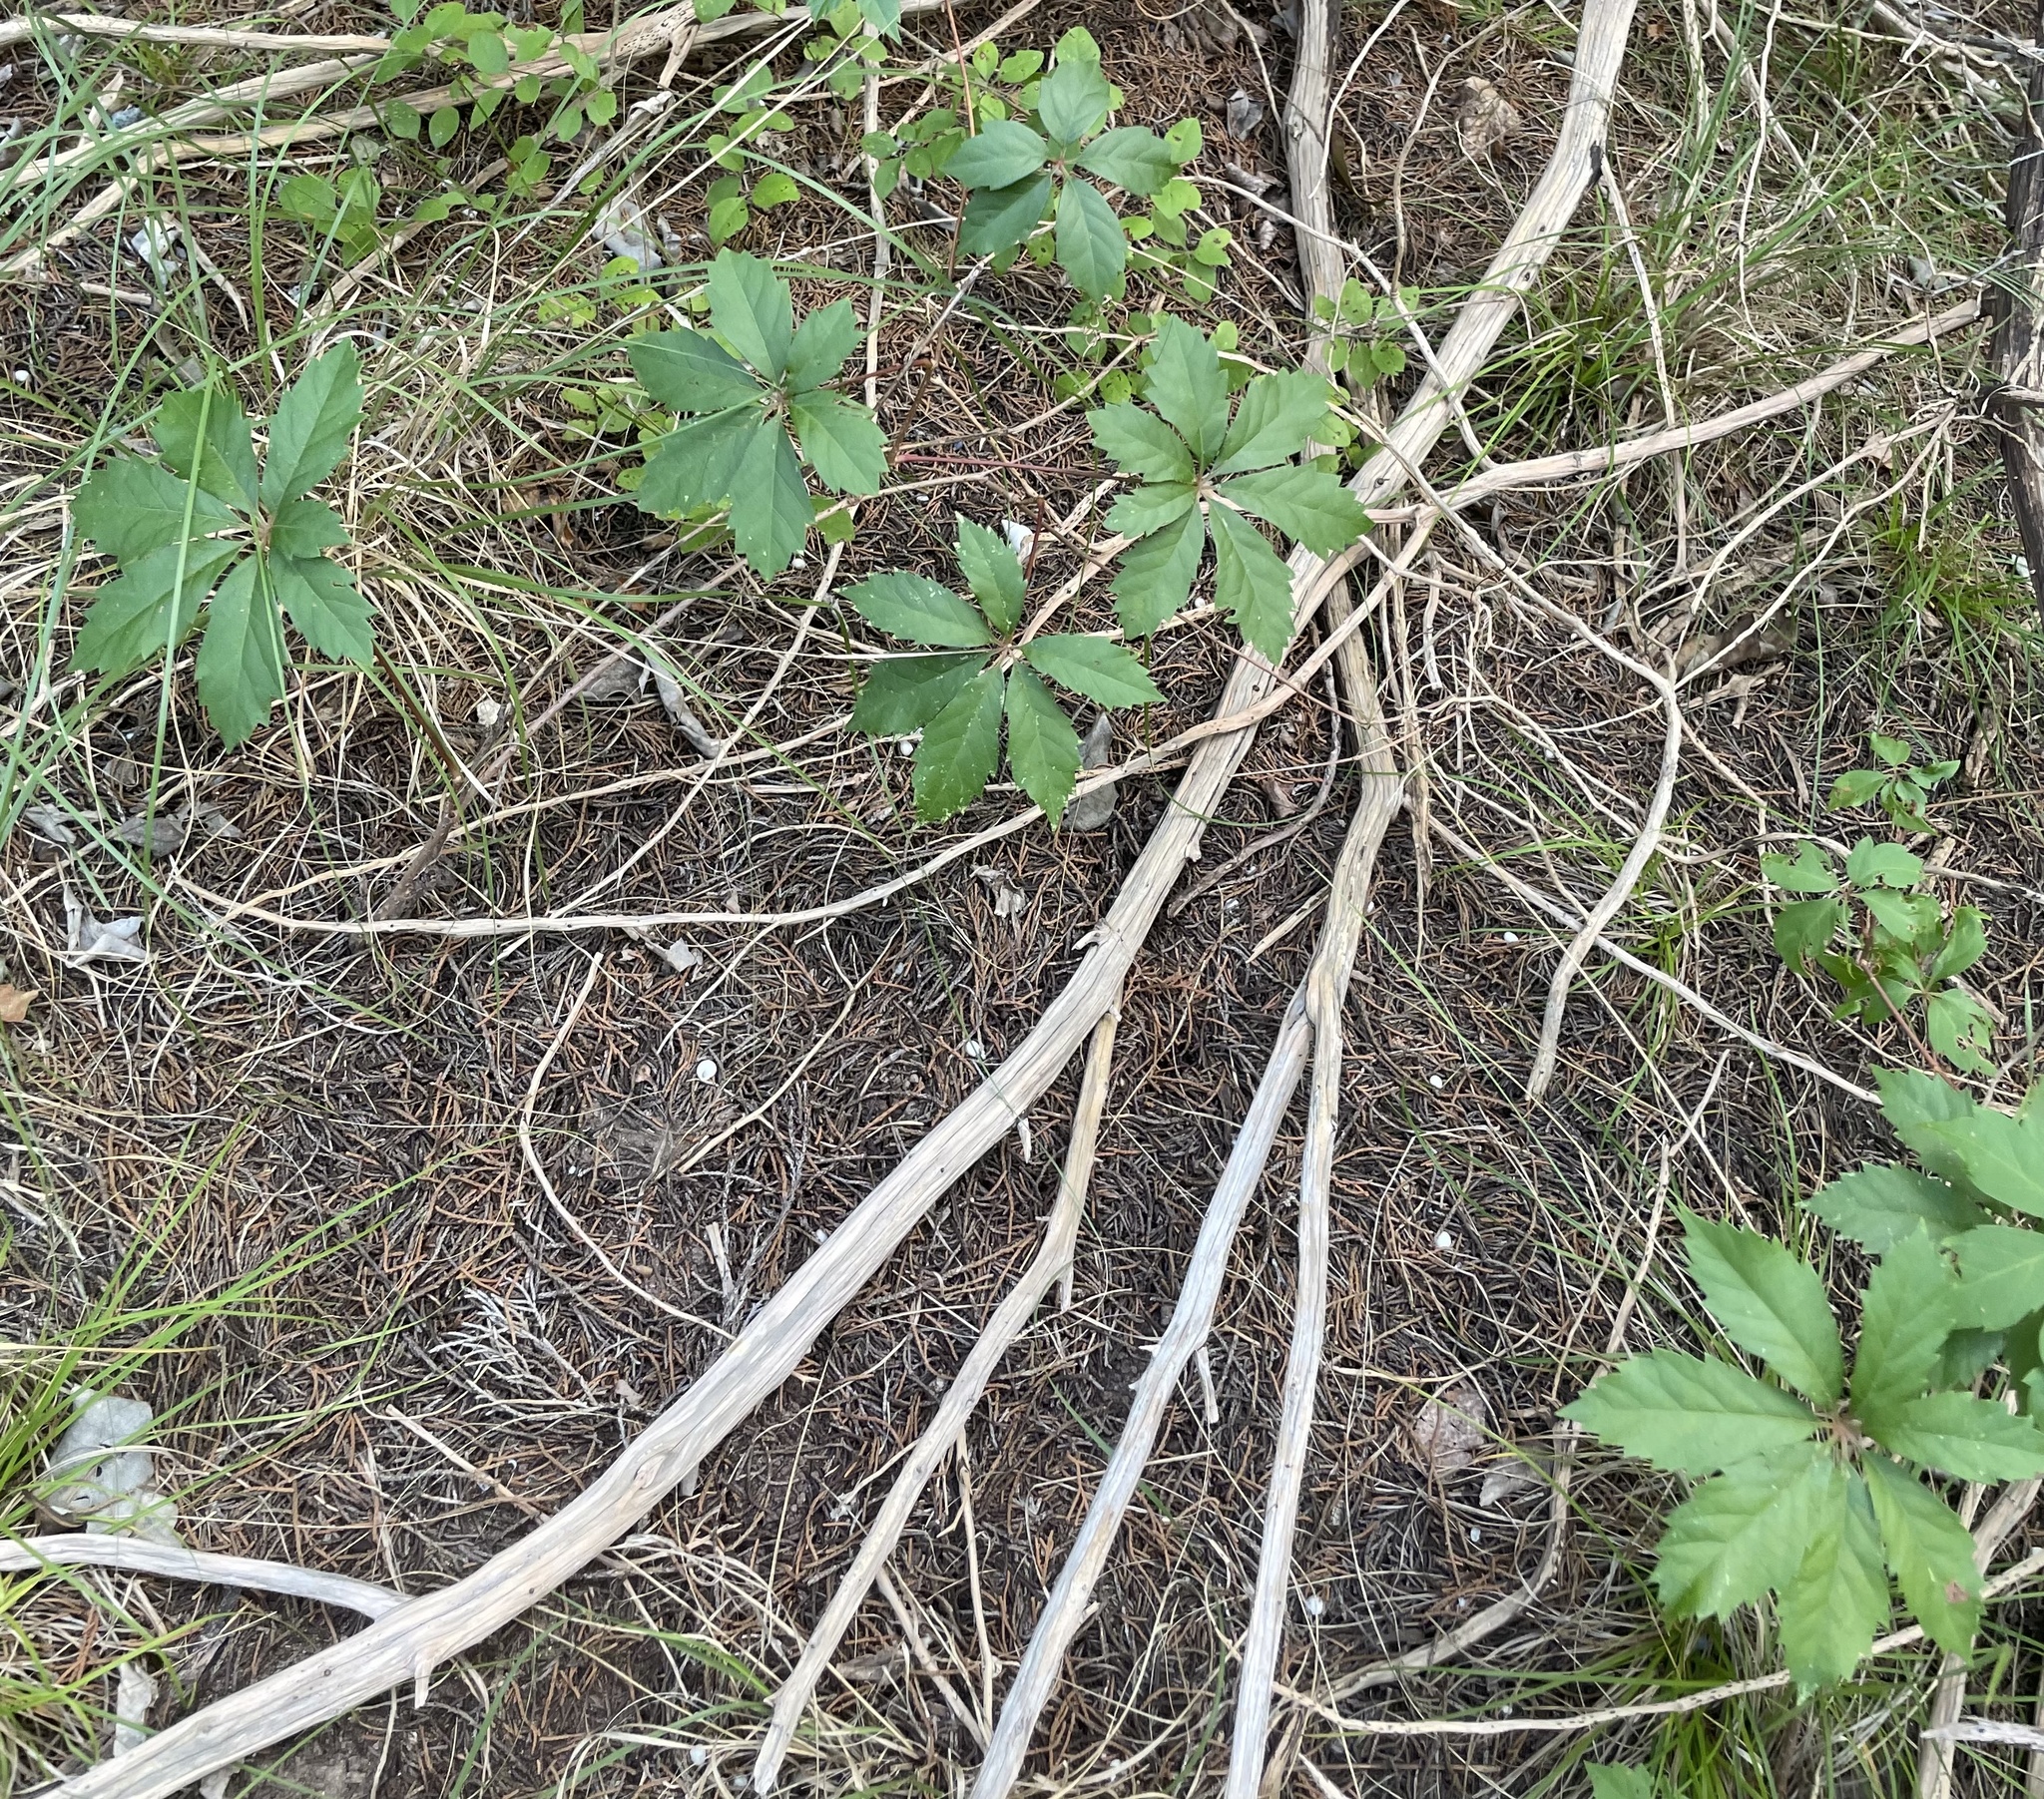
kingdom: Plantae
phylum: Tracheophyta
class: Magnoliopsida
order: Vitales
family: Vitaceae
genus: Parthenocissus
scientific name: Parthenocissus heptaphylla
